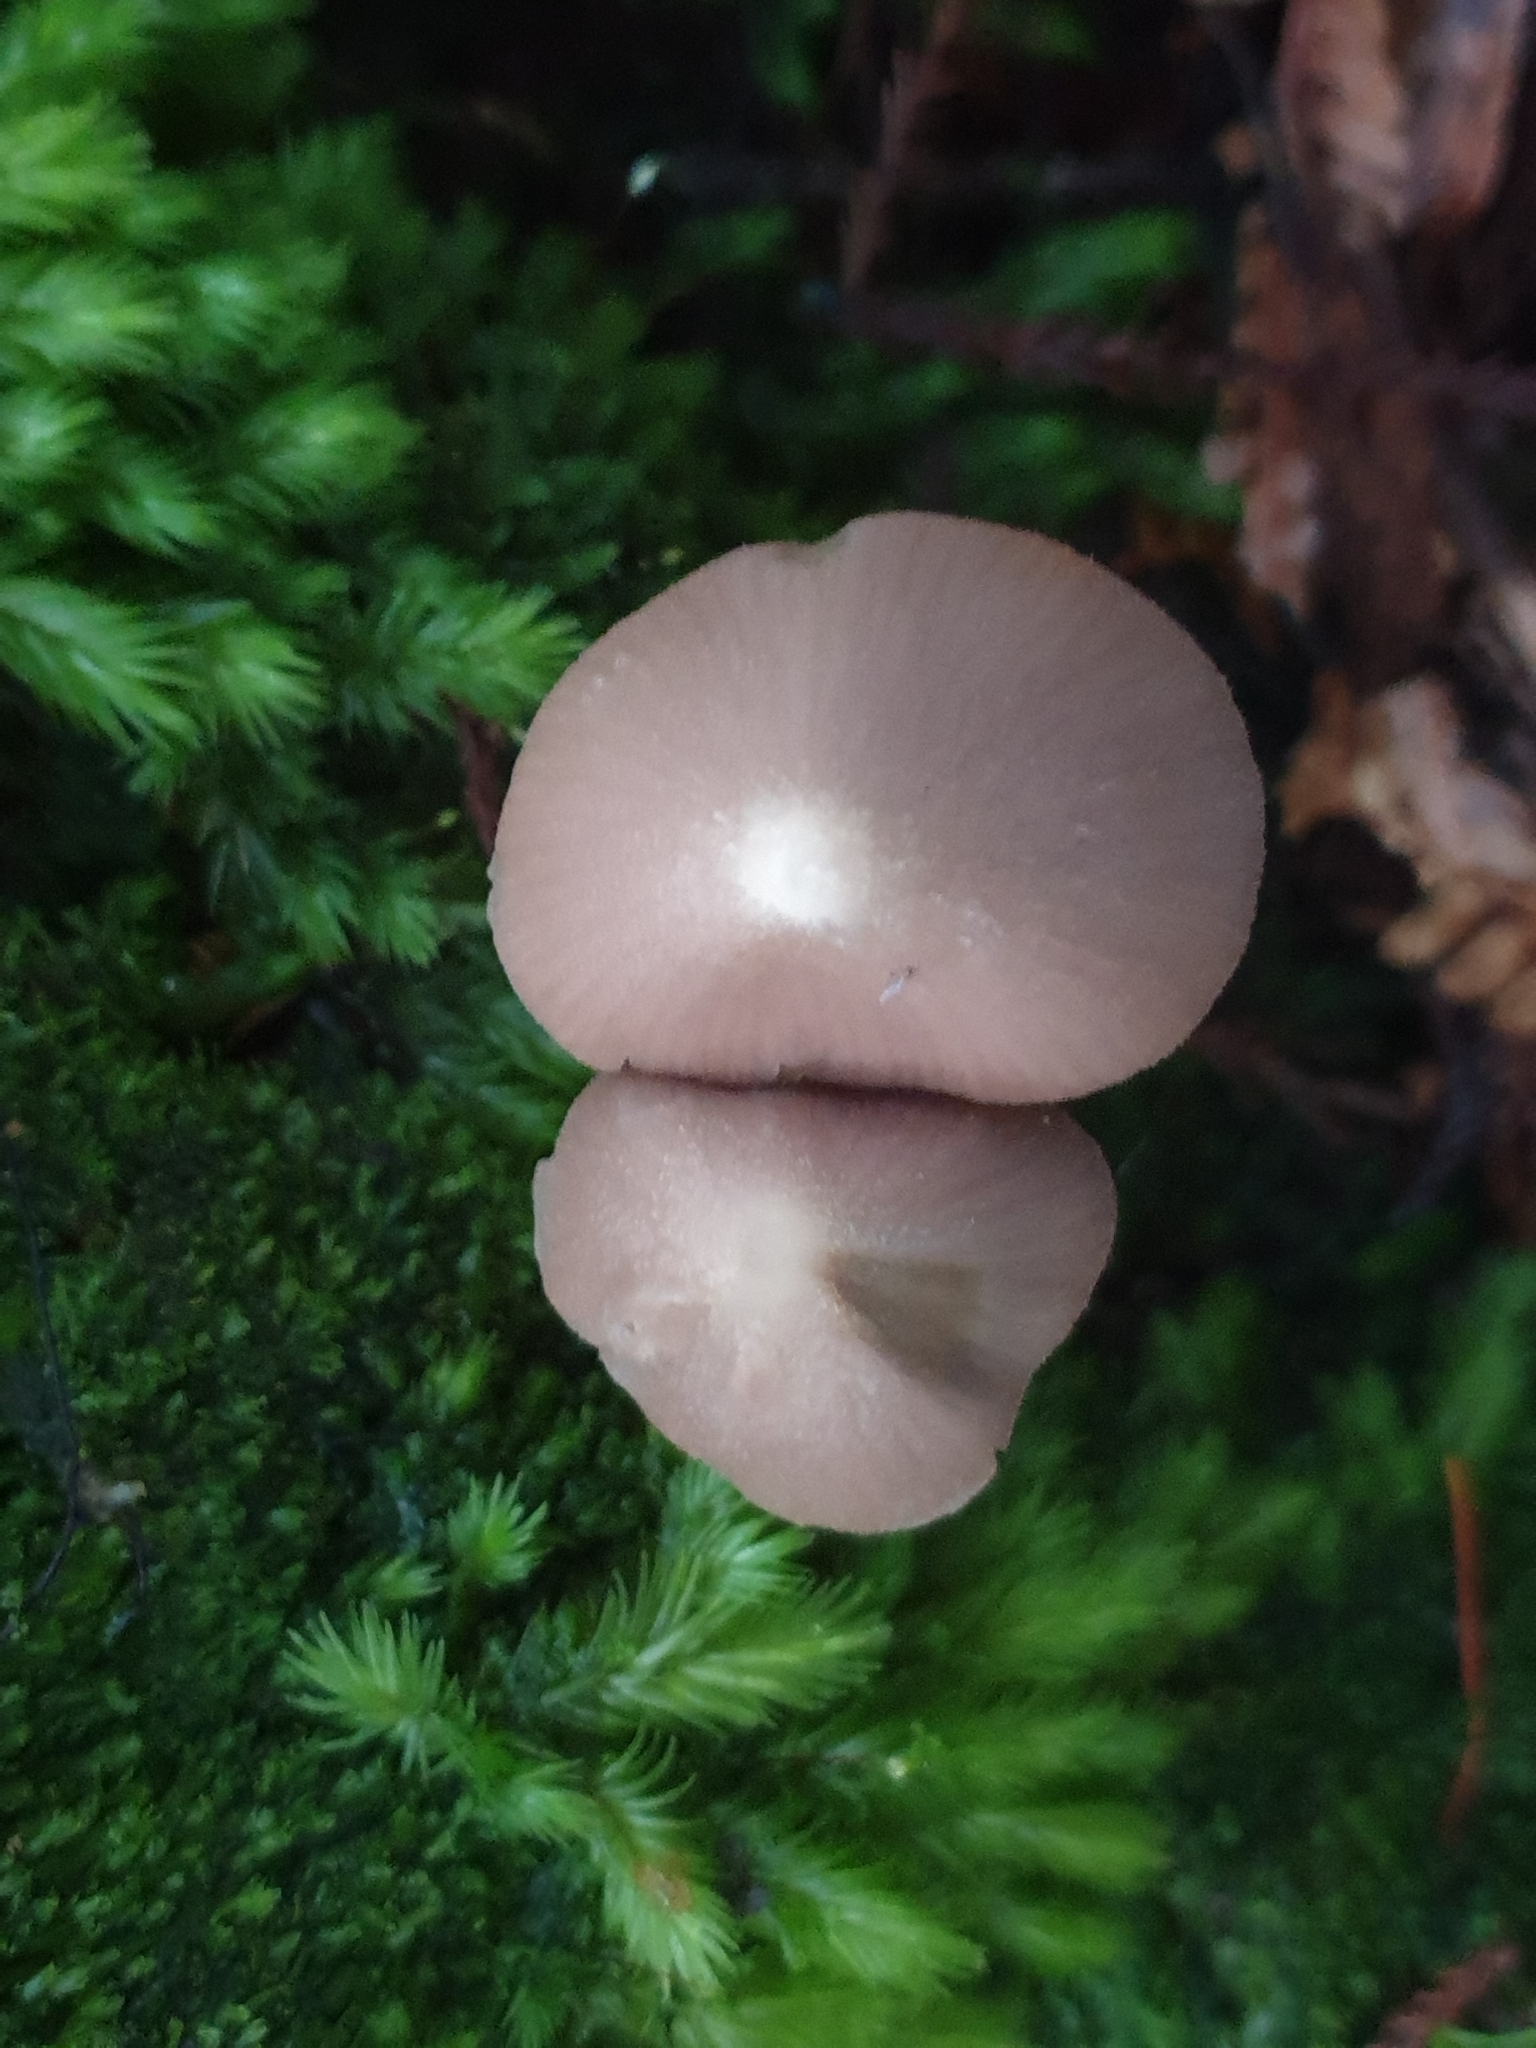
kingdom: Fungi
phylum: Basidiomycota
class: Agaricomycetes
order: Agaricales
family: Entolomataceae
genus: Entoloma
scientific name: Entoloma canoconicum
